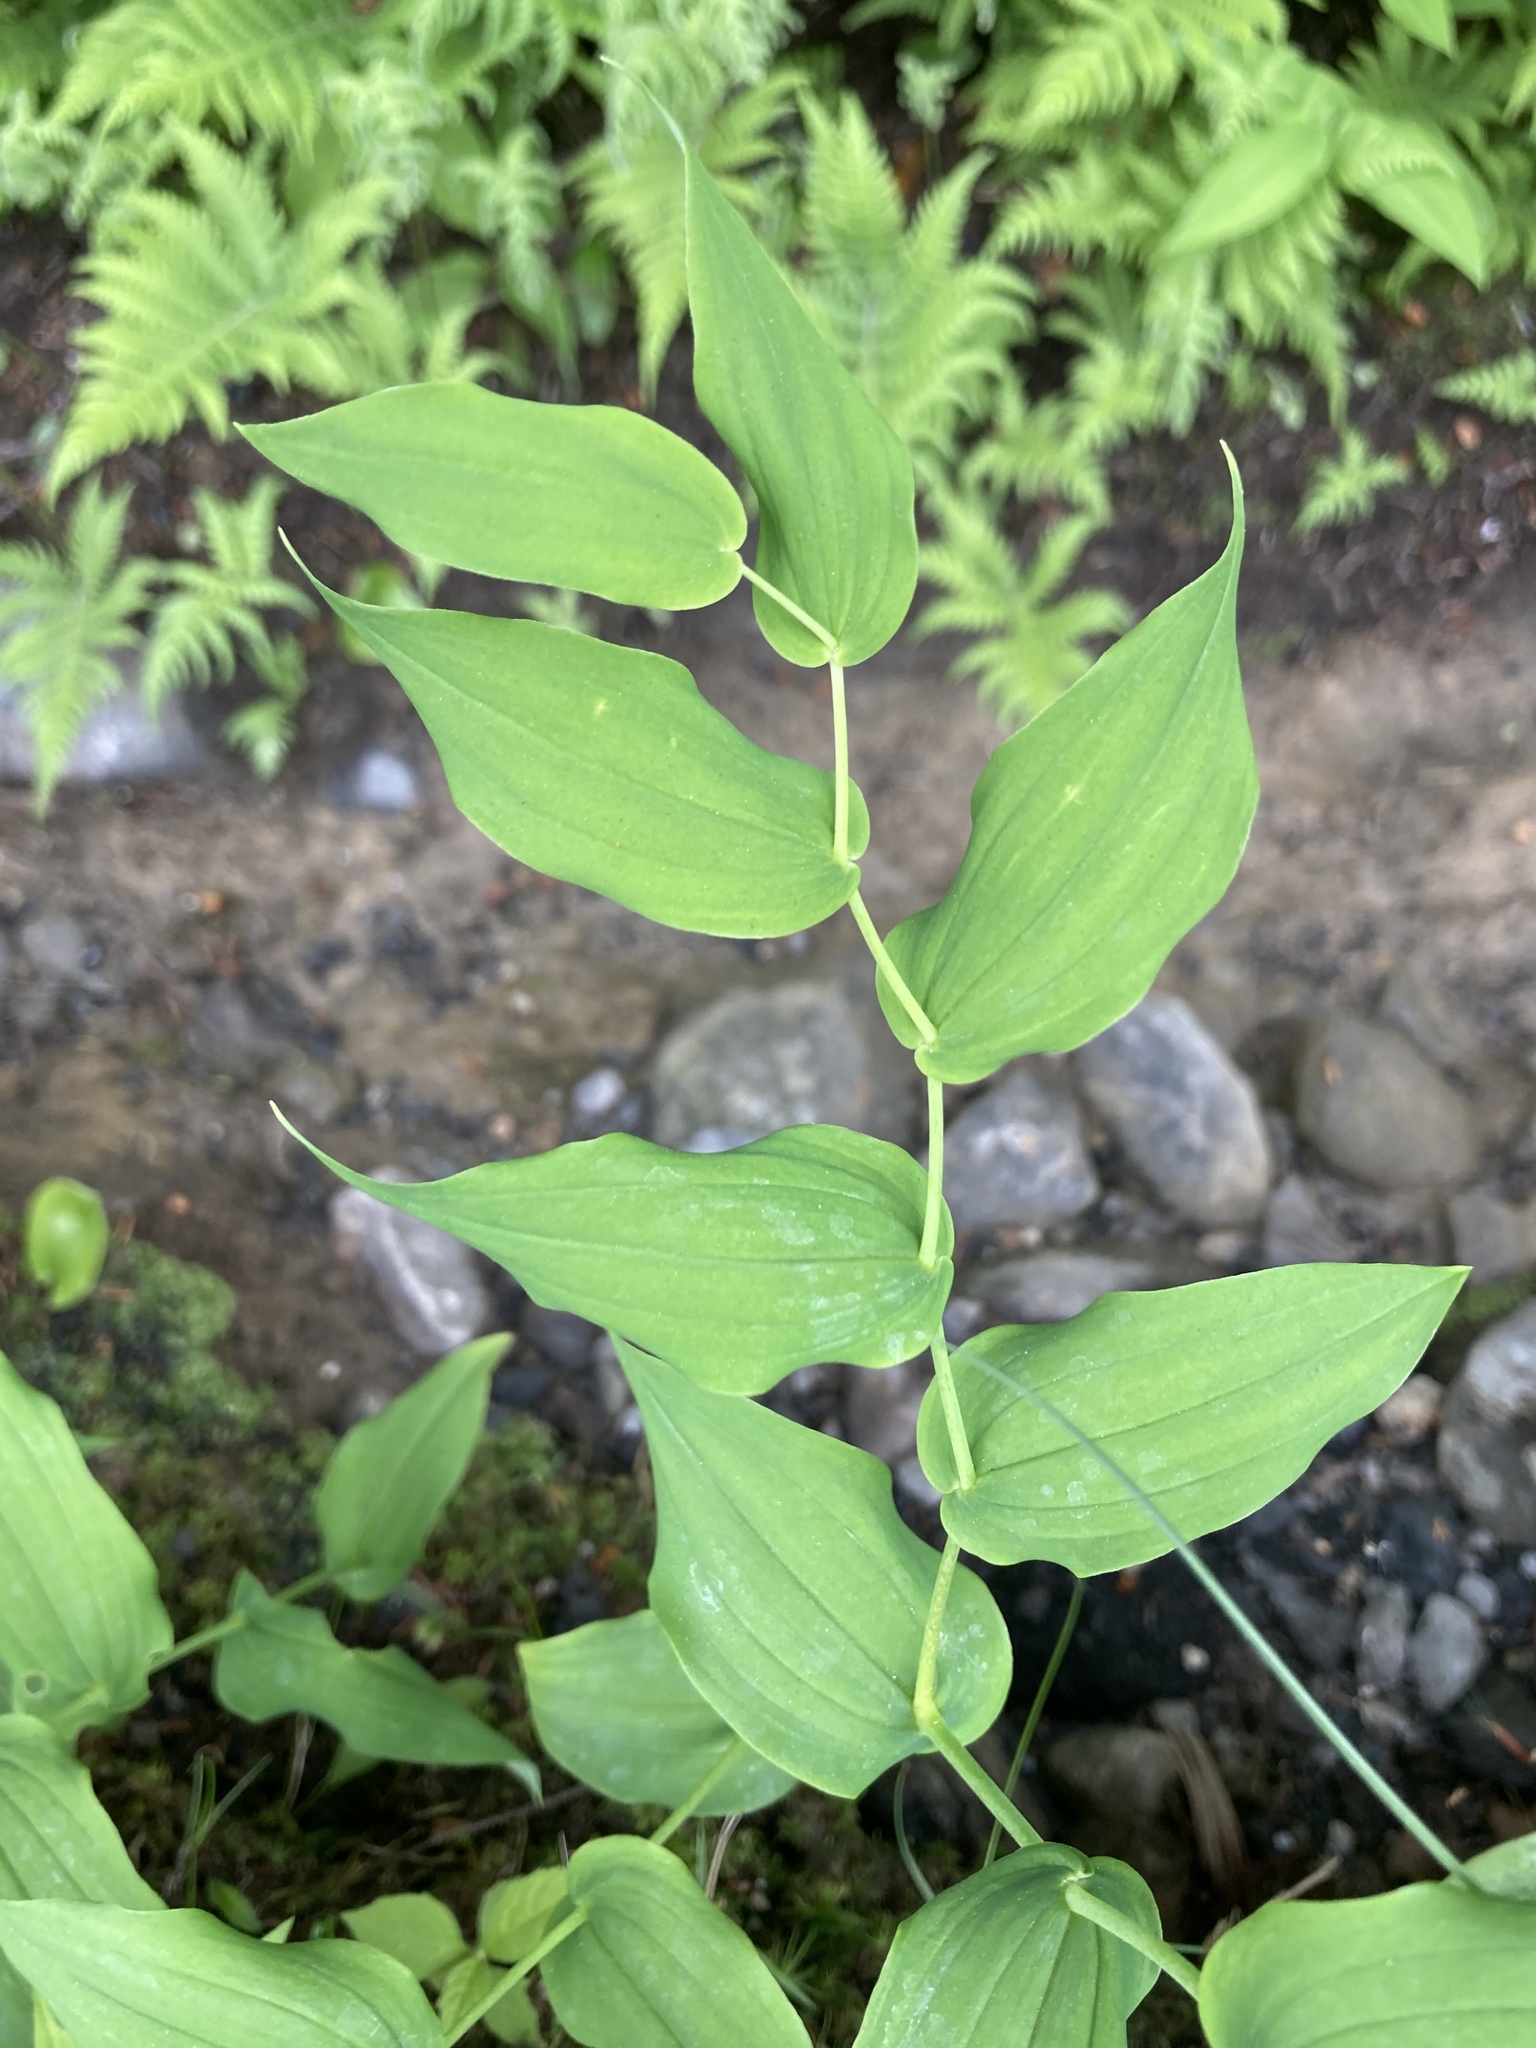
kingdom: Plantae
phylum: Tracheophyta
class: Liliopsida
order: Liliales
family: Liliaceae
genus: Streptopus
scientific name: Streptopus amplexifolius
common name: Clasp twisted stalk
